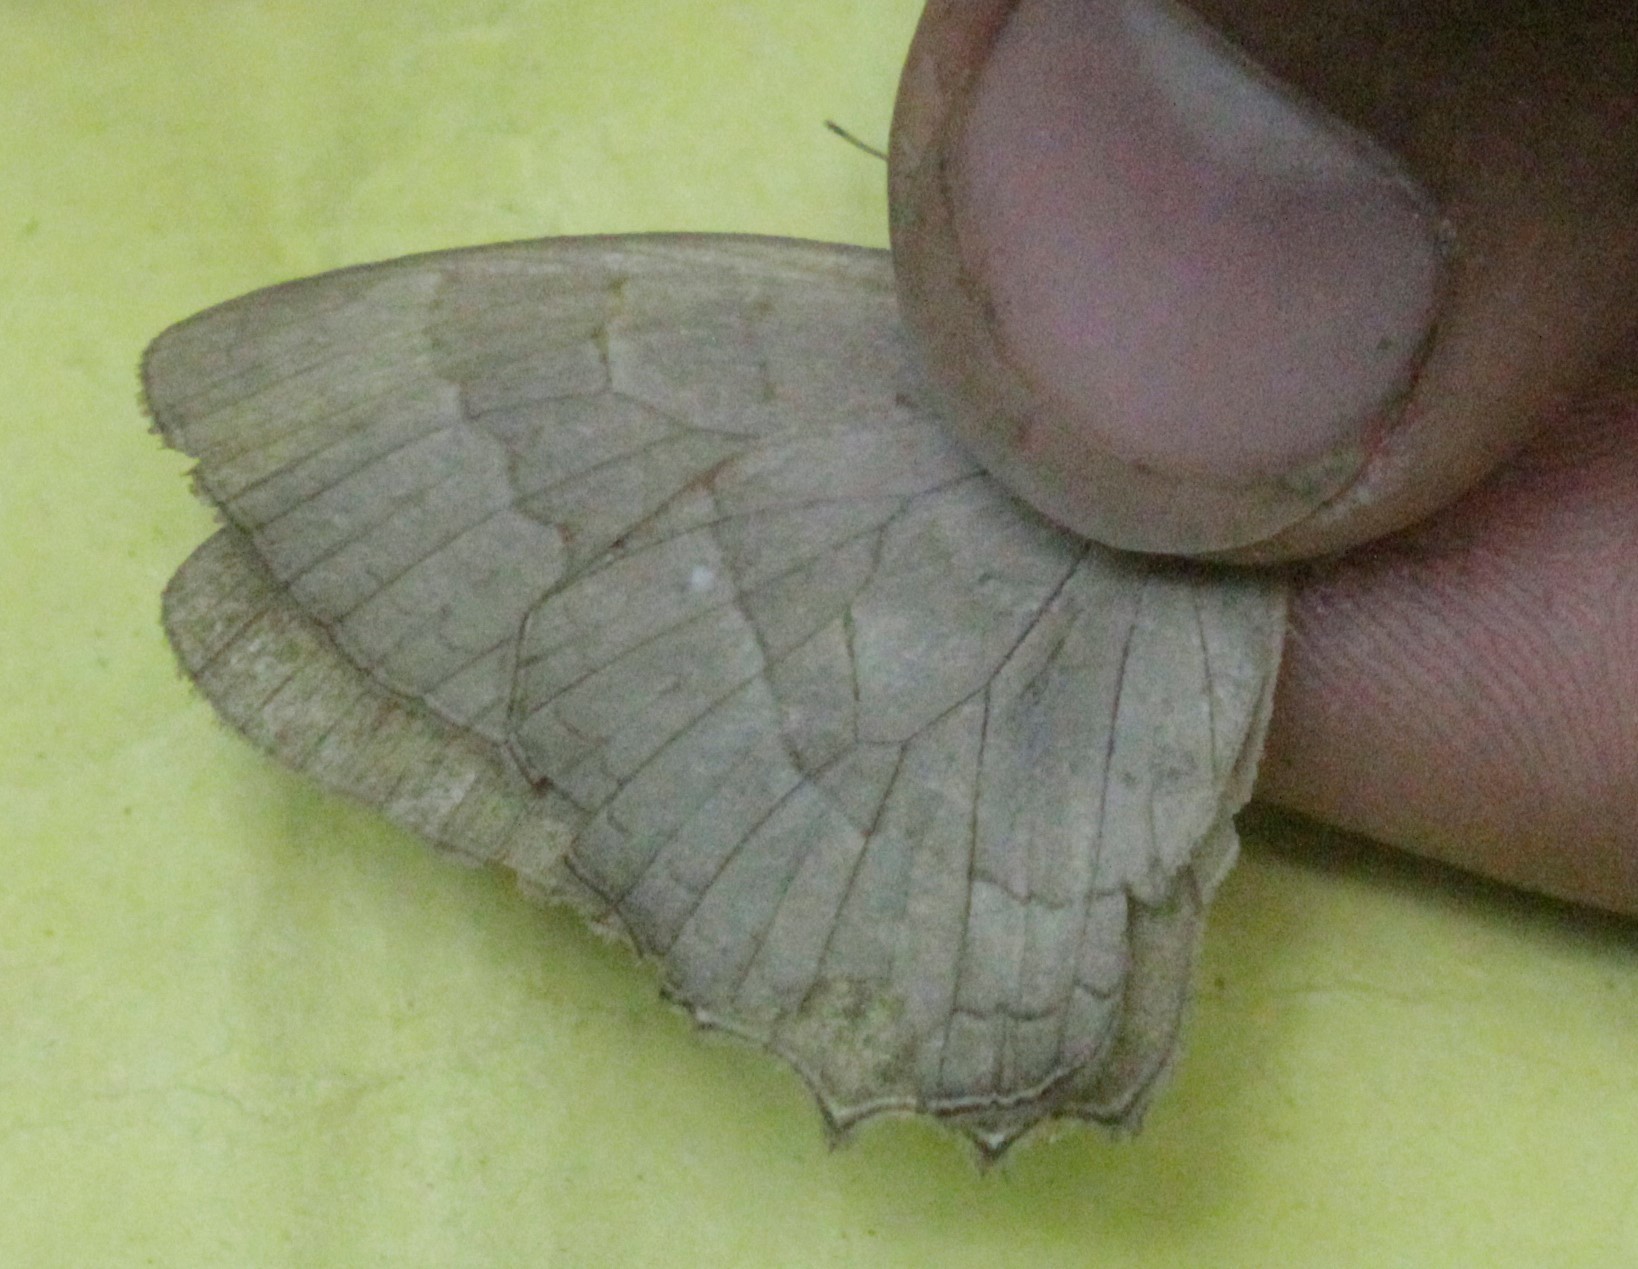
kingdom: Animalia
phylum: Arthropoda
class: Insecta
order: Lepidoptera
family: Nymphalidae
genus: Taygetina
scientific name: Taygetina kerea
